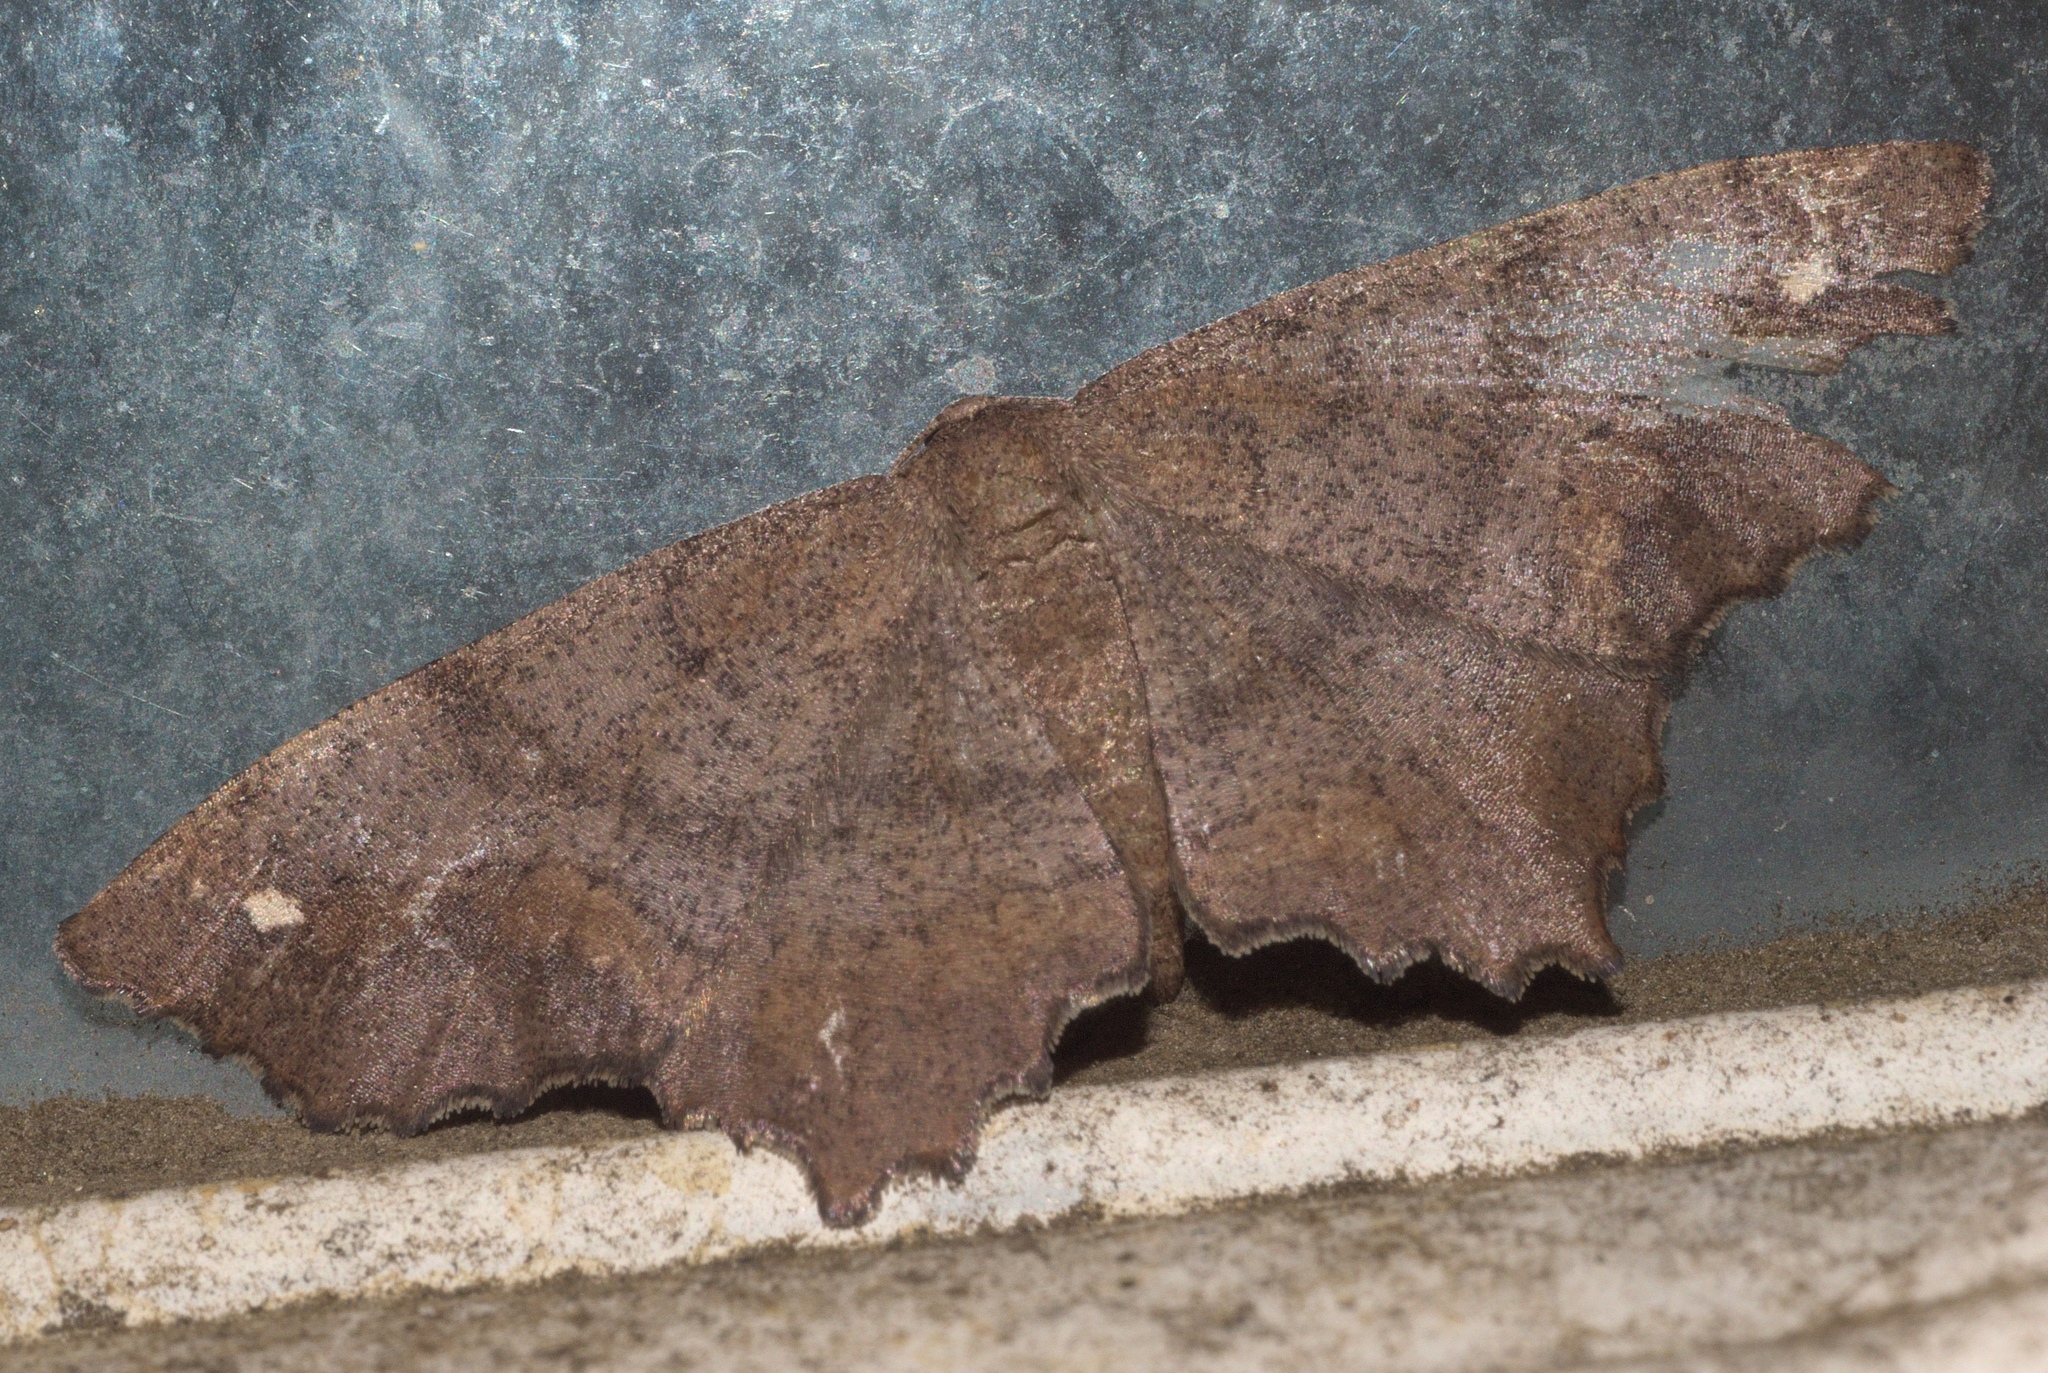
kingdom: Animalia
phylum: Arthropoda
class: Insecta
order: Lepidoptera
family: Geometridae
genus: Hypagyrtis
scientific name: Hypagyrtis esther
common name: Esther moth
